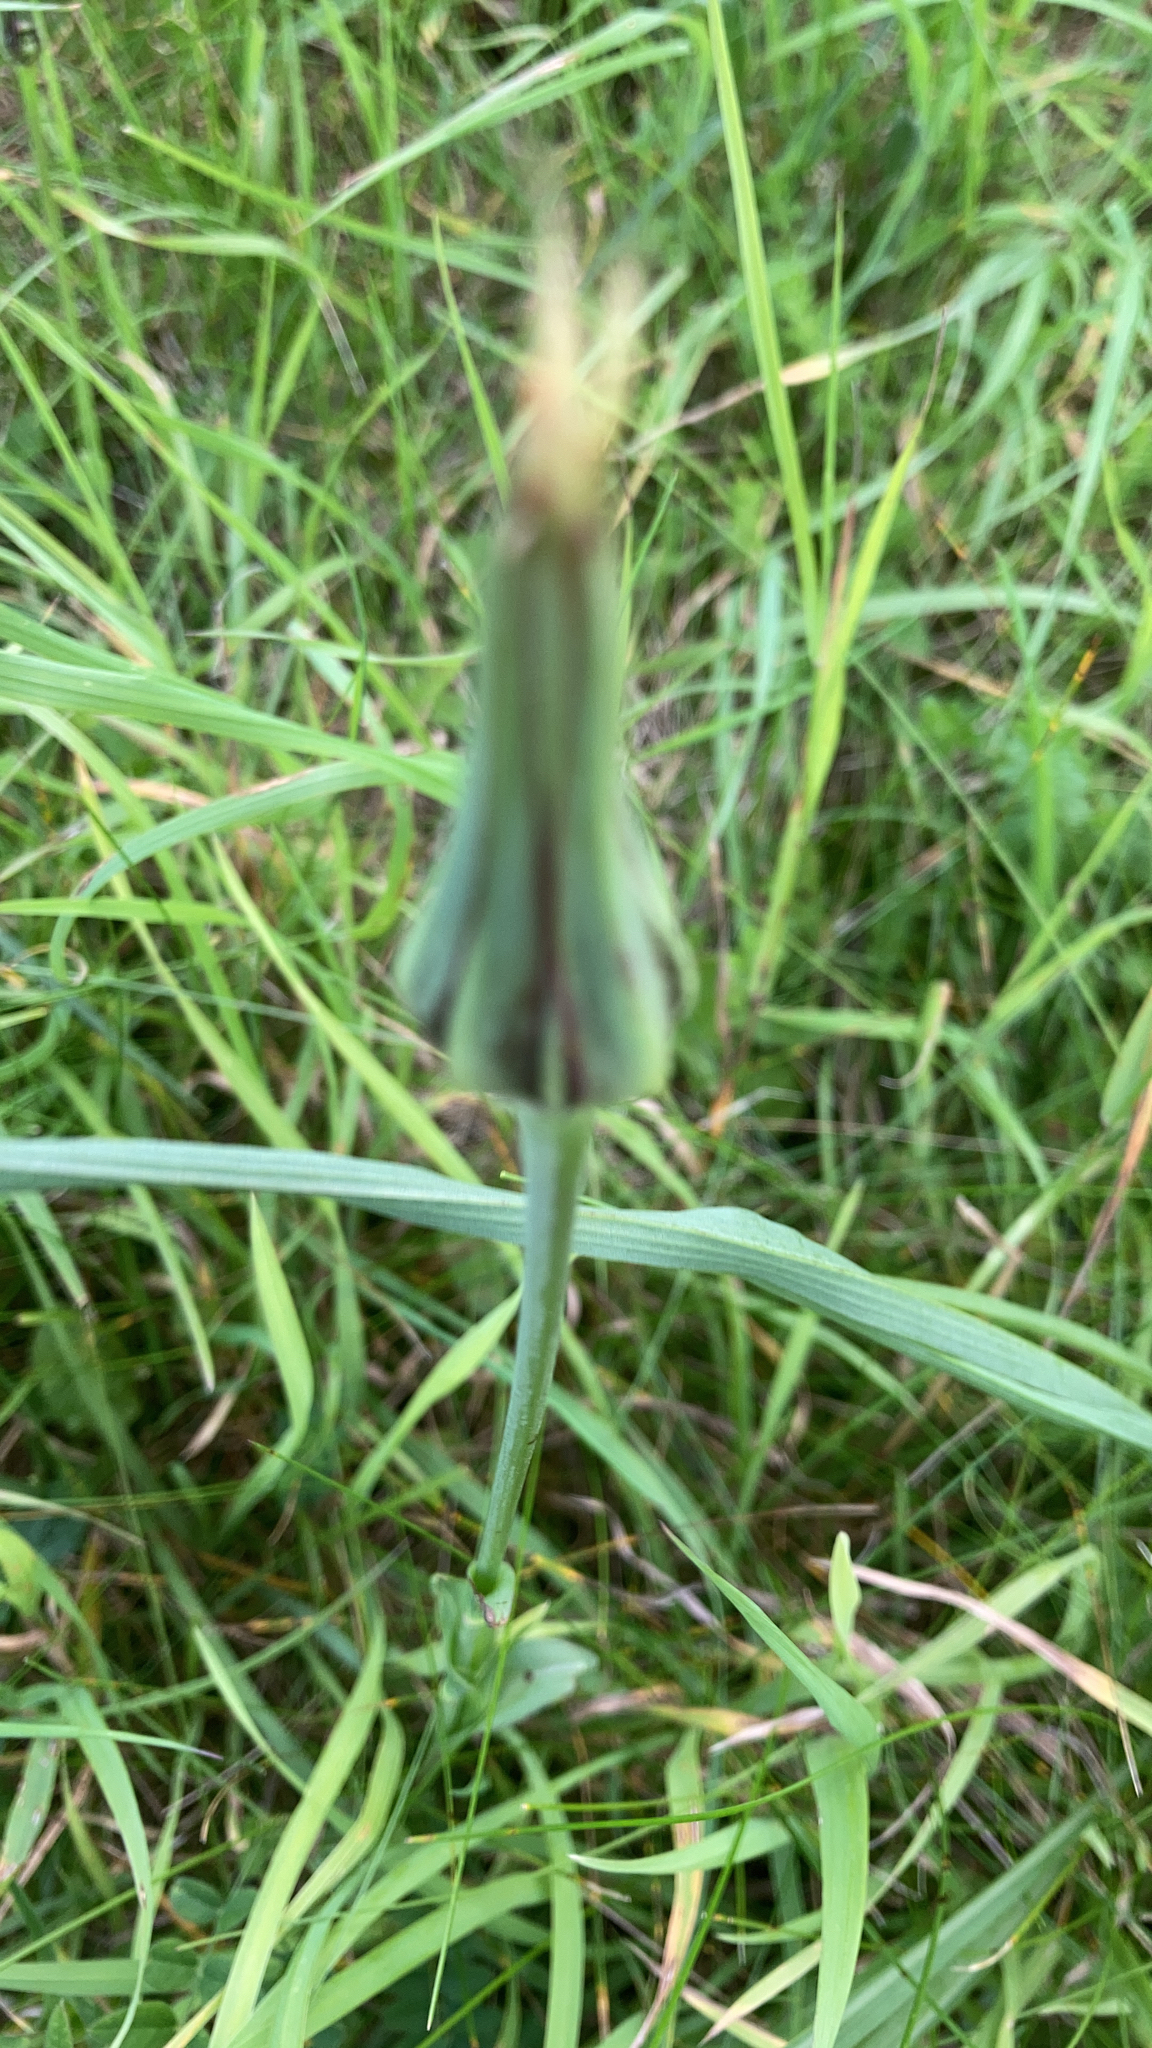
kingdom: Plantae
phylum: Tracheophyta
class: Magnoliopsida
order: Asterales
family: Asteraceae
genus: Tragopogon
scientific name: Tragopogon pratensis
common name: Goat's-beard
